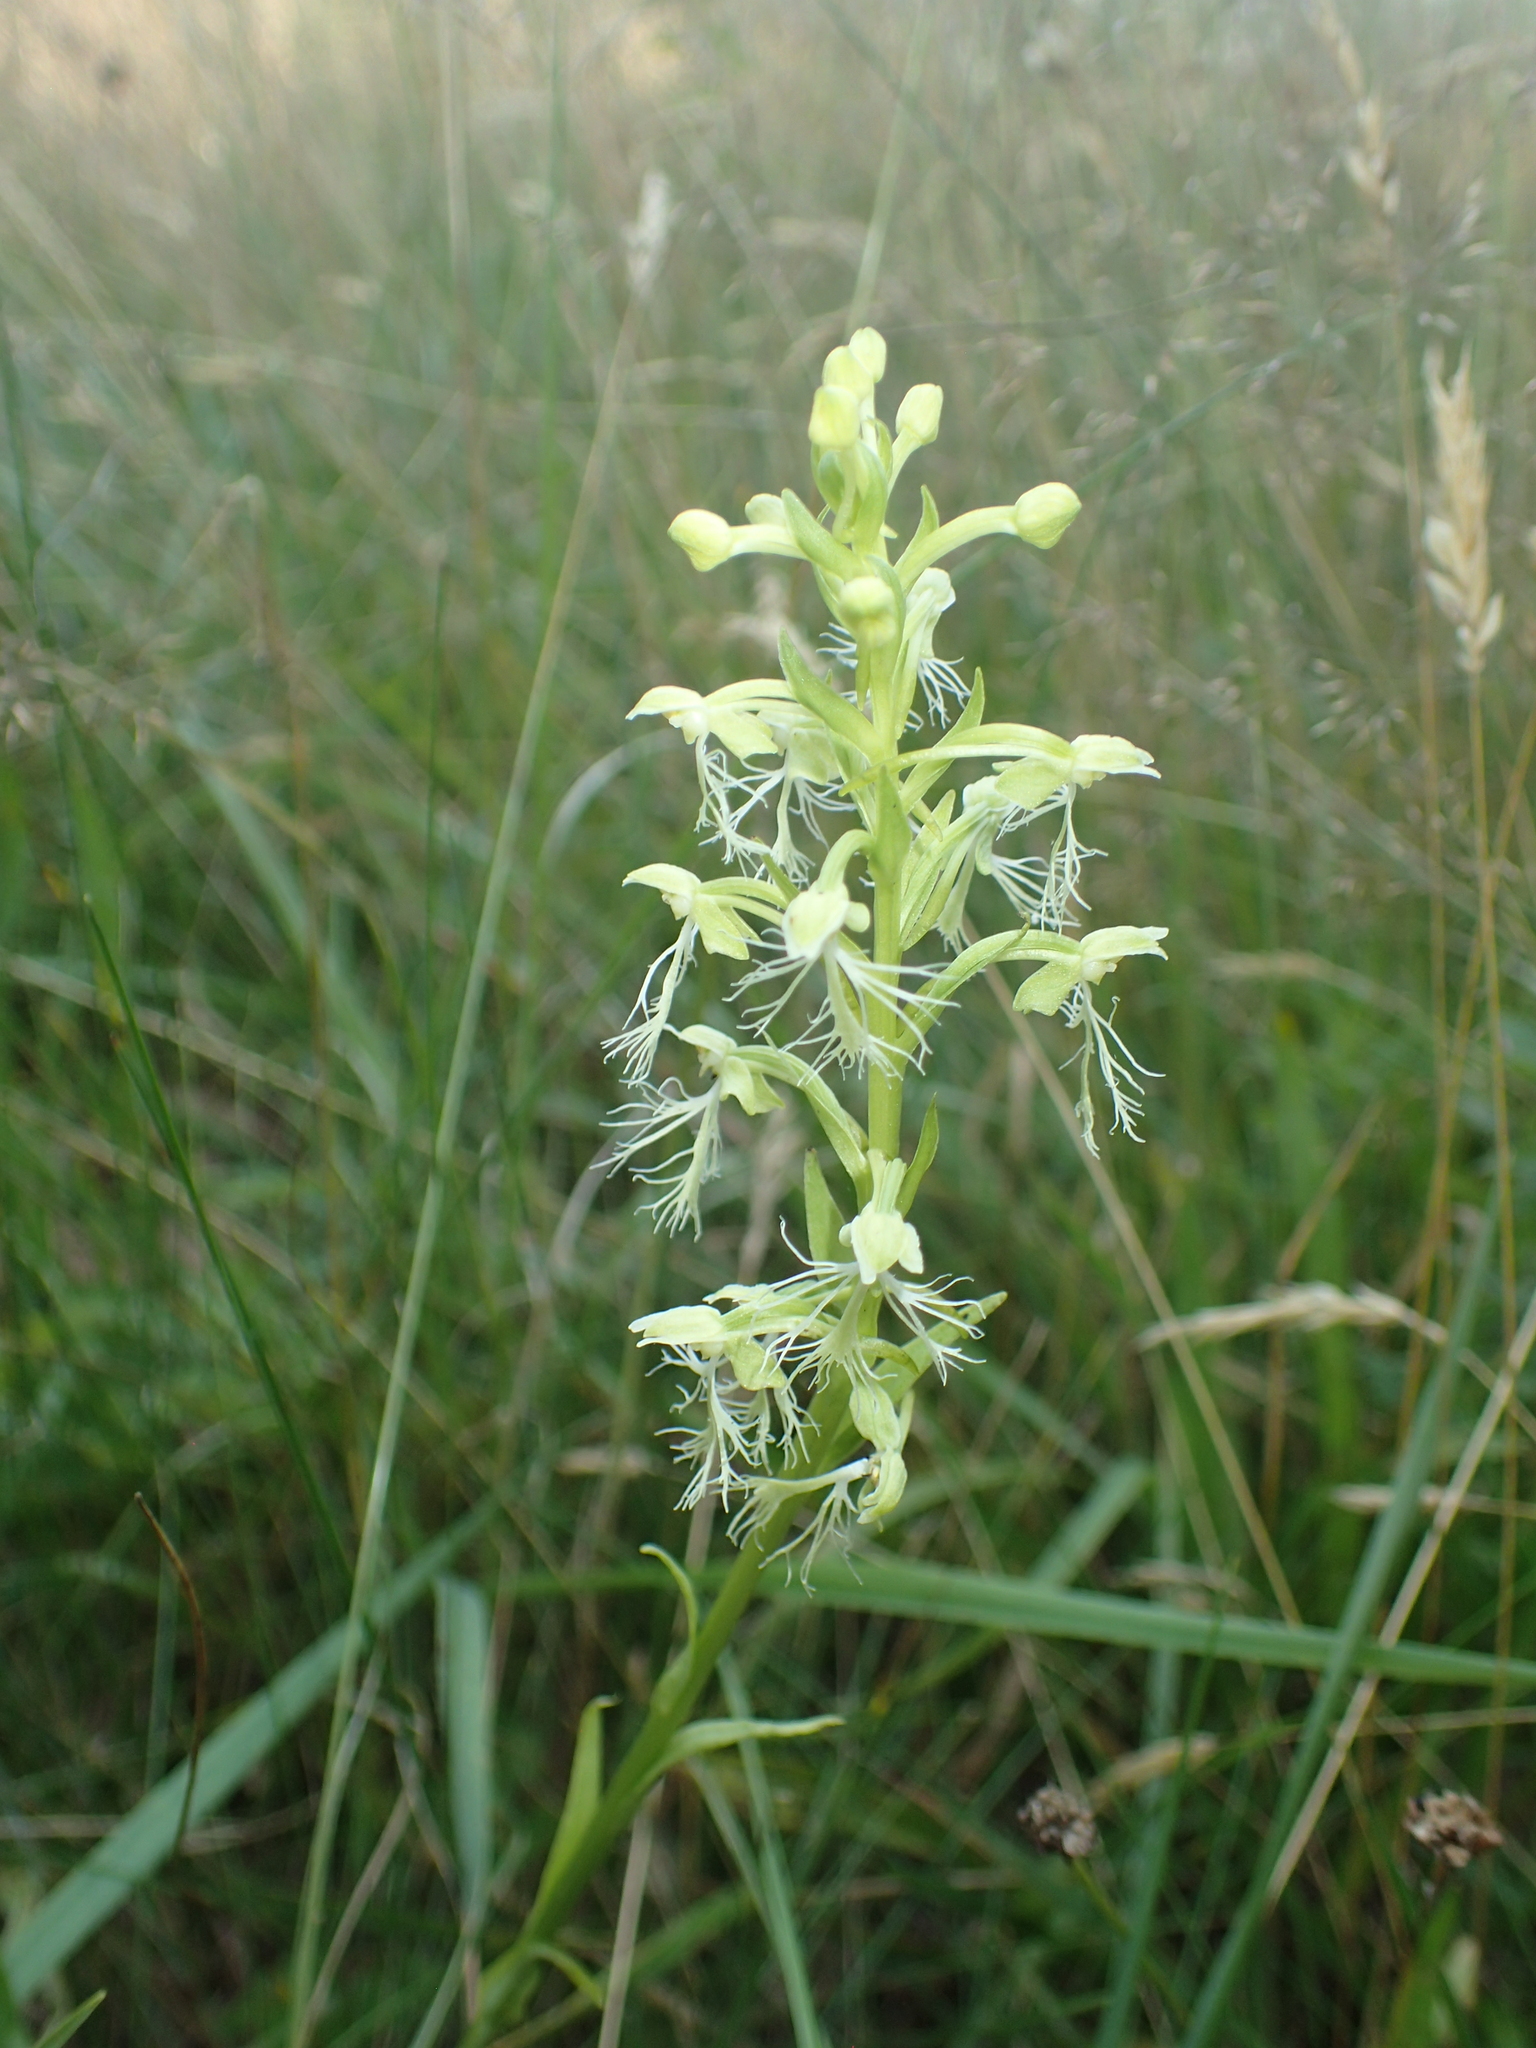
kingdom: Plantae
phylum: Tracheophyta
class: Liliopsida
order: Asparagales
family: Orchidaceae
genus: Platanthera
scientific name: Platanthera lacera
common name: Green fringed orchid
